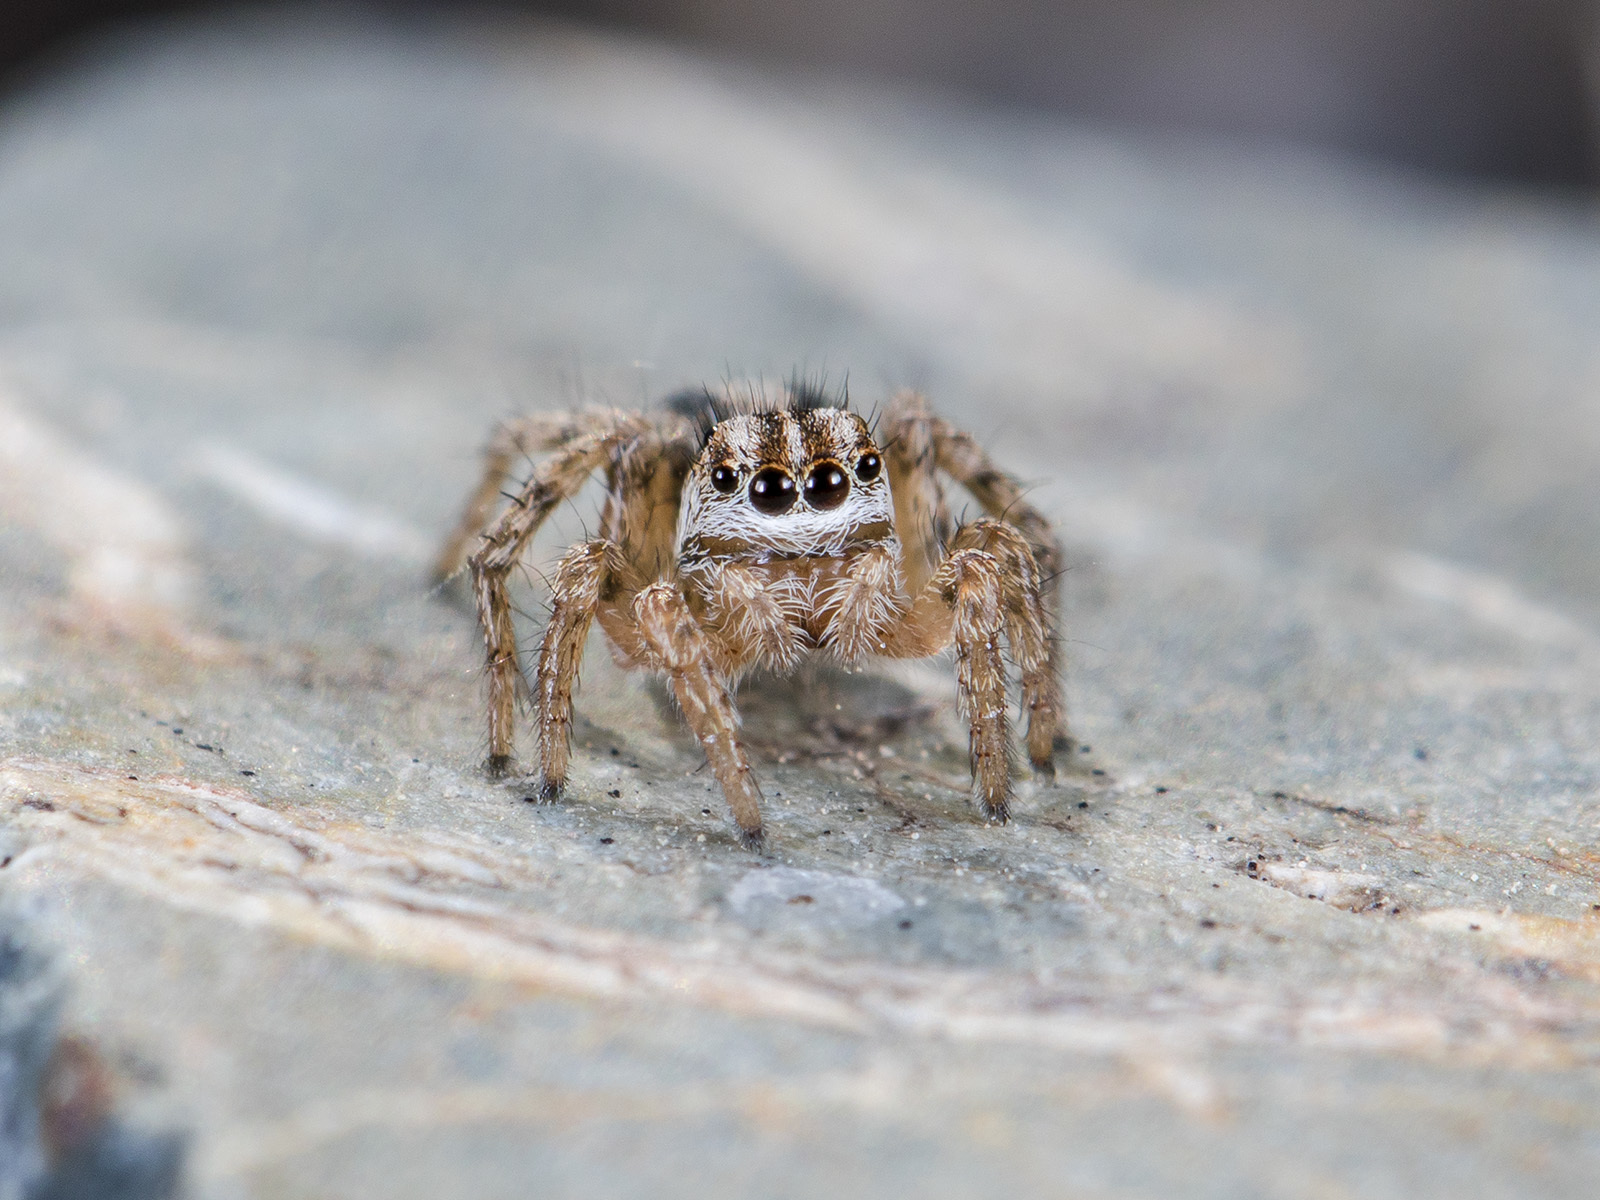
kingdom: Animalia
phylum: Arthropoda
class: Arachnida
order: Araneae
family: Salticidae
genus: Aelurillus
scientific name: Aelurillus m-nigrum
